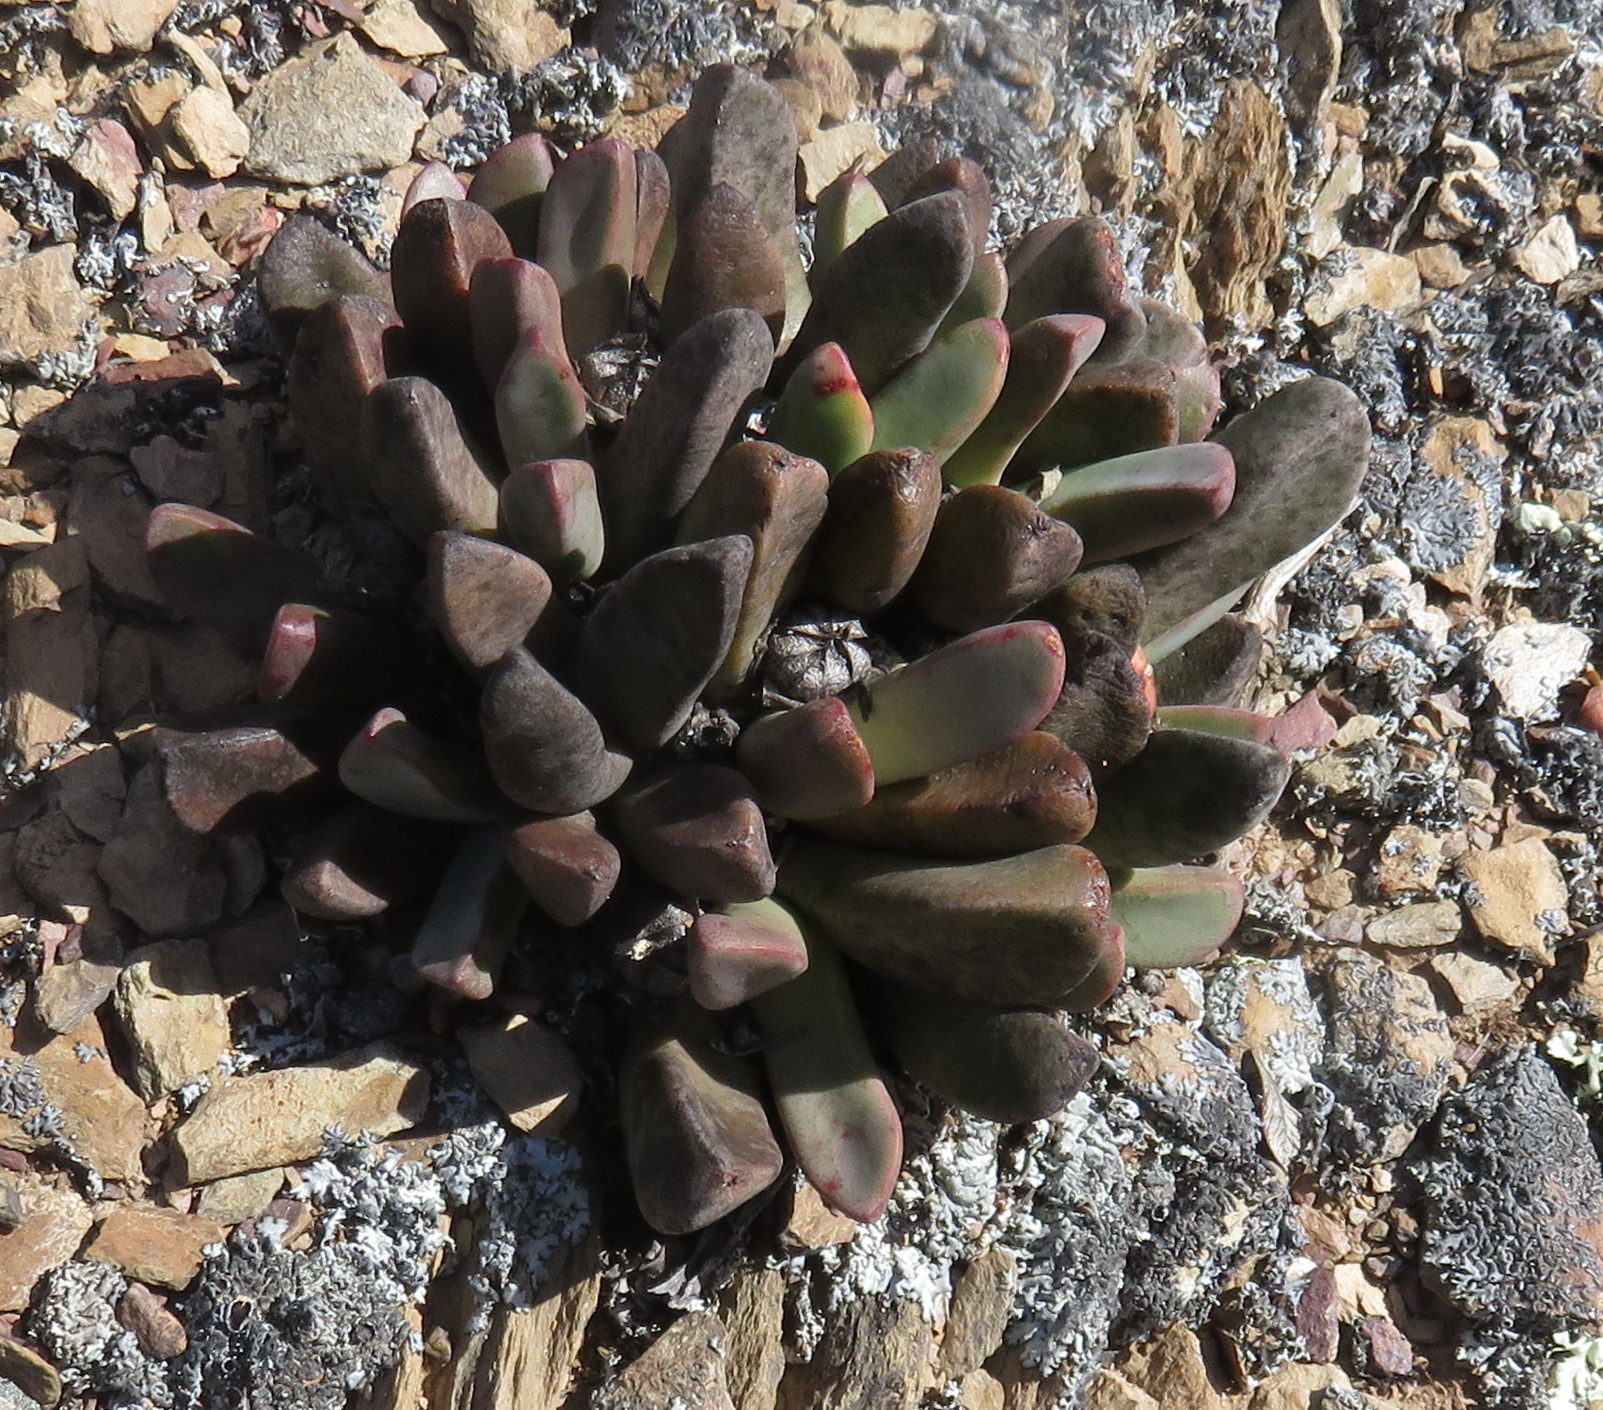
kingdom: Plantae
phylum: Tracheophyta
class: Magnoliopsida
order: Caryophyllales
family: Aizoaceae
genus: Pleiospilos
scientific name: Pleiospilos compactus
